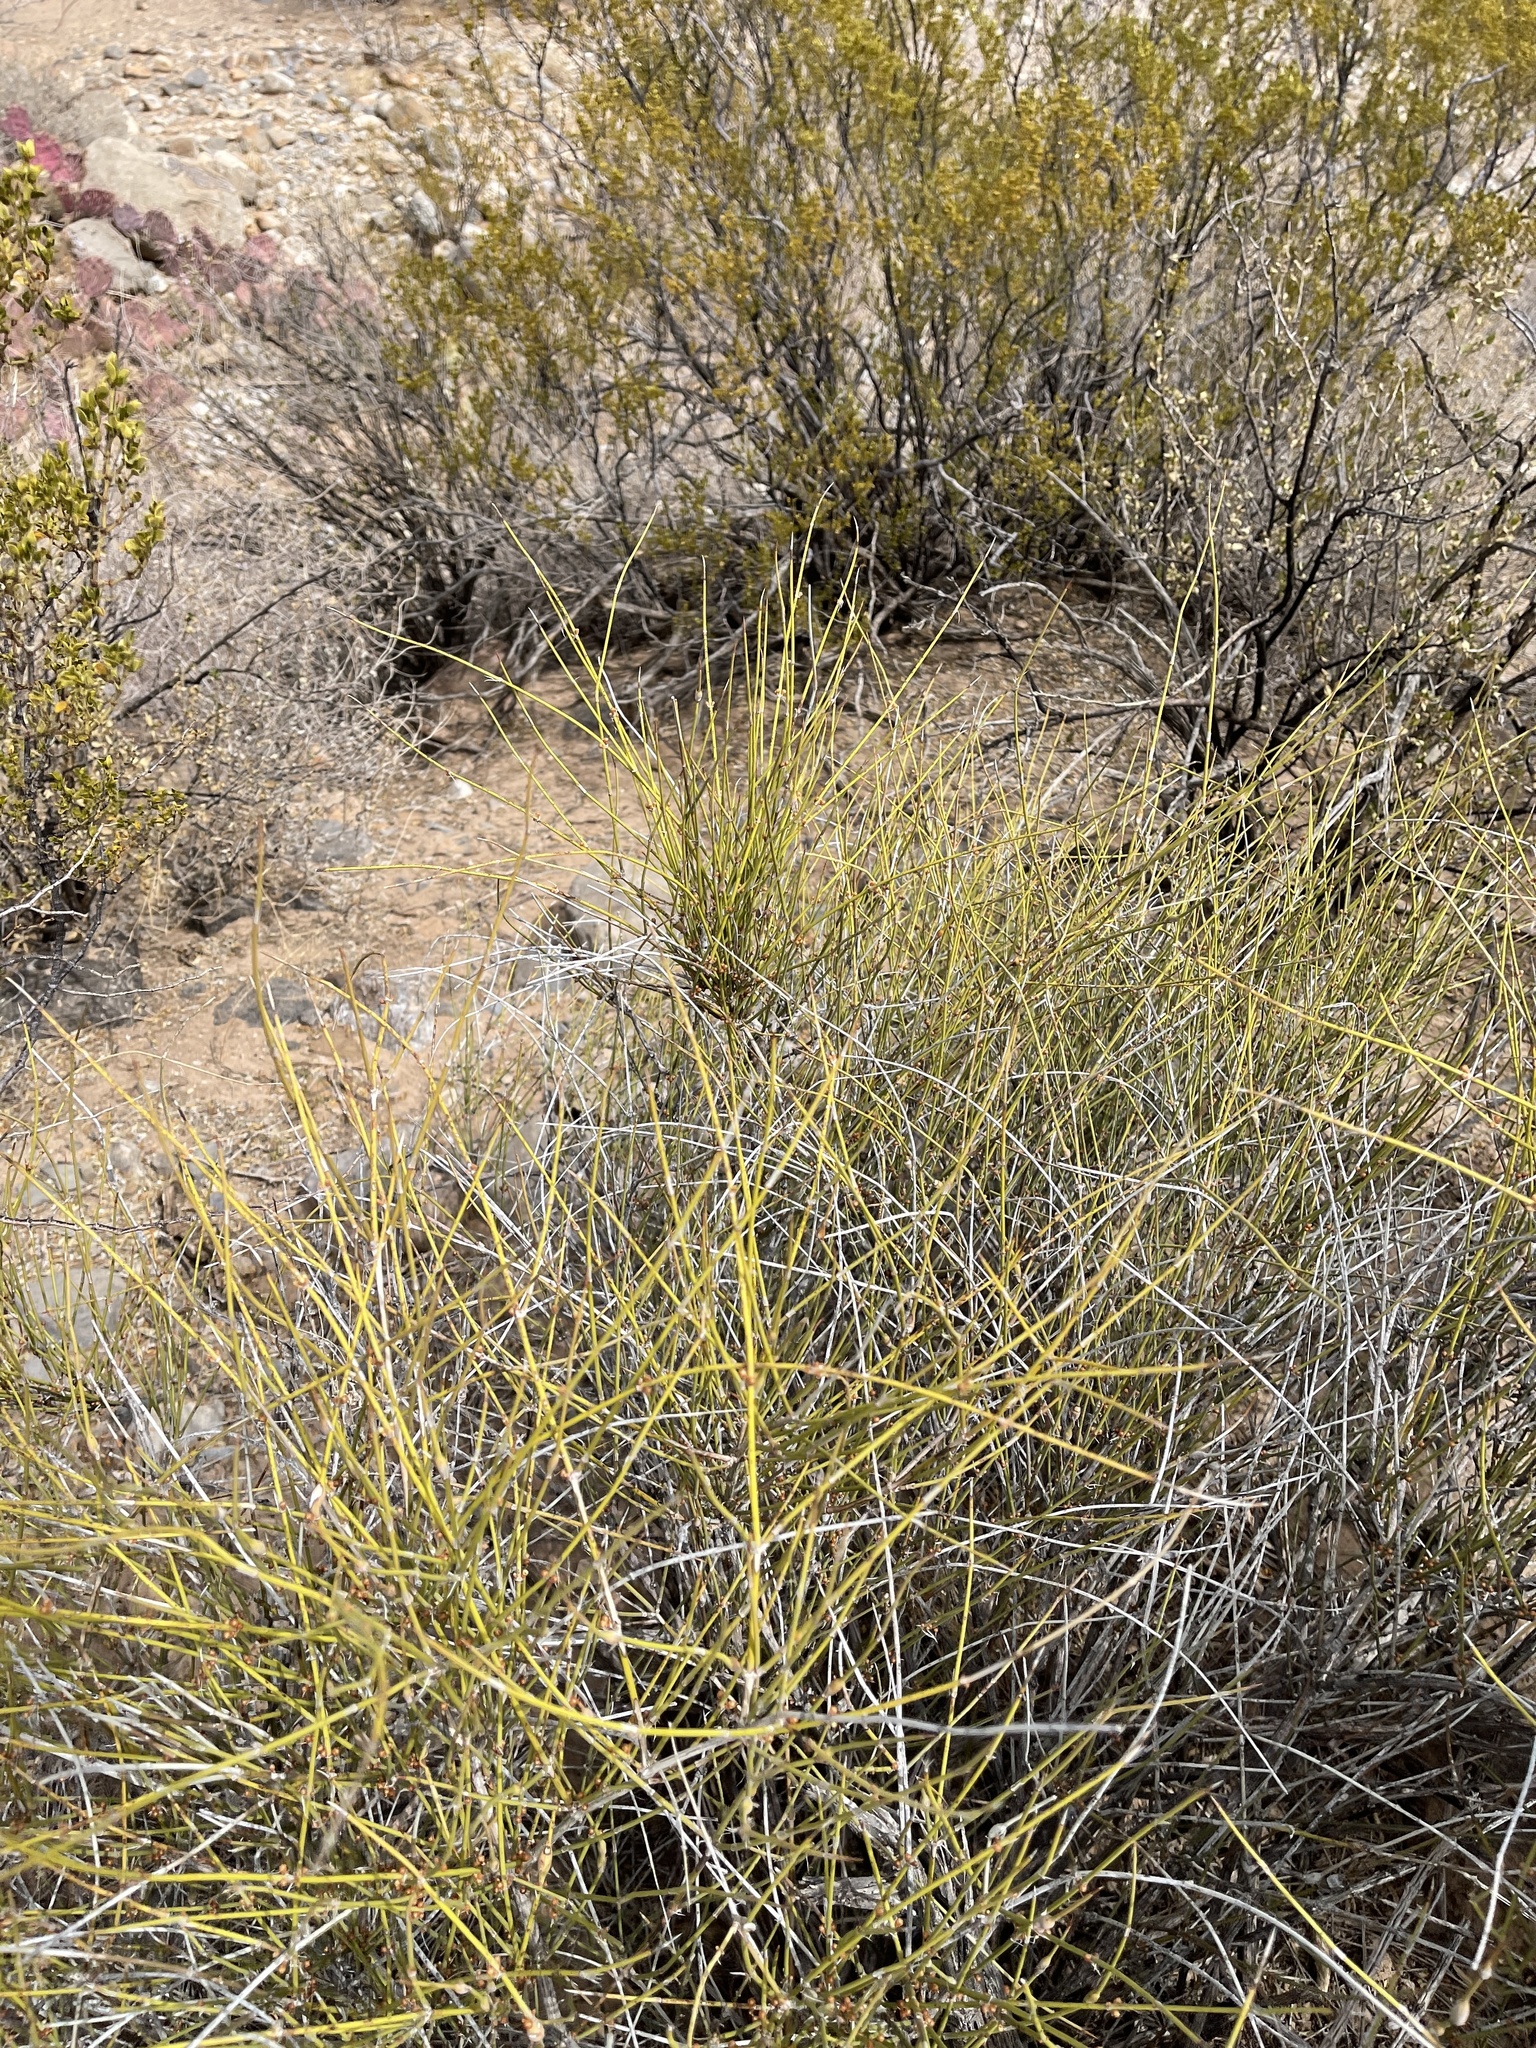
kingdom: Plantae
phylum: Tracheophyta
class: Gnetopsida
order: Ephedrales
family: Ephedraceae
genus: Ephedra
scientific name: Ephedra trifurca
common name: Mexican-tea
